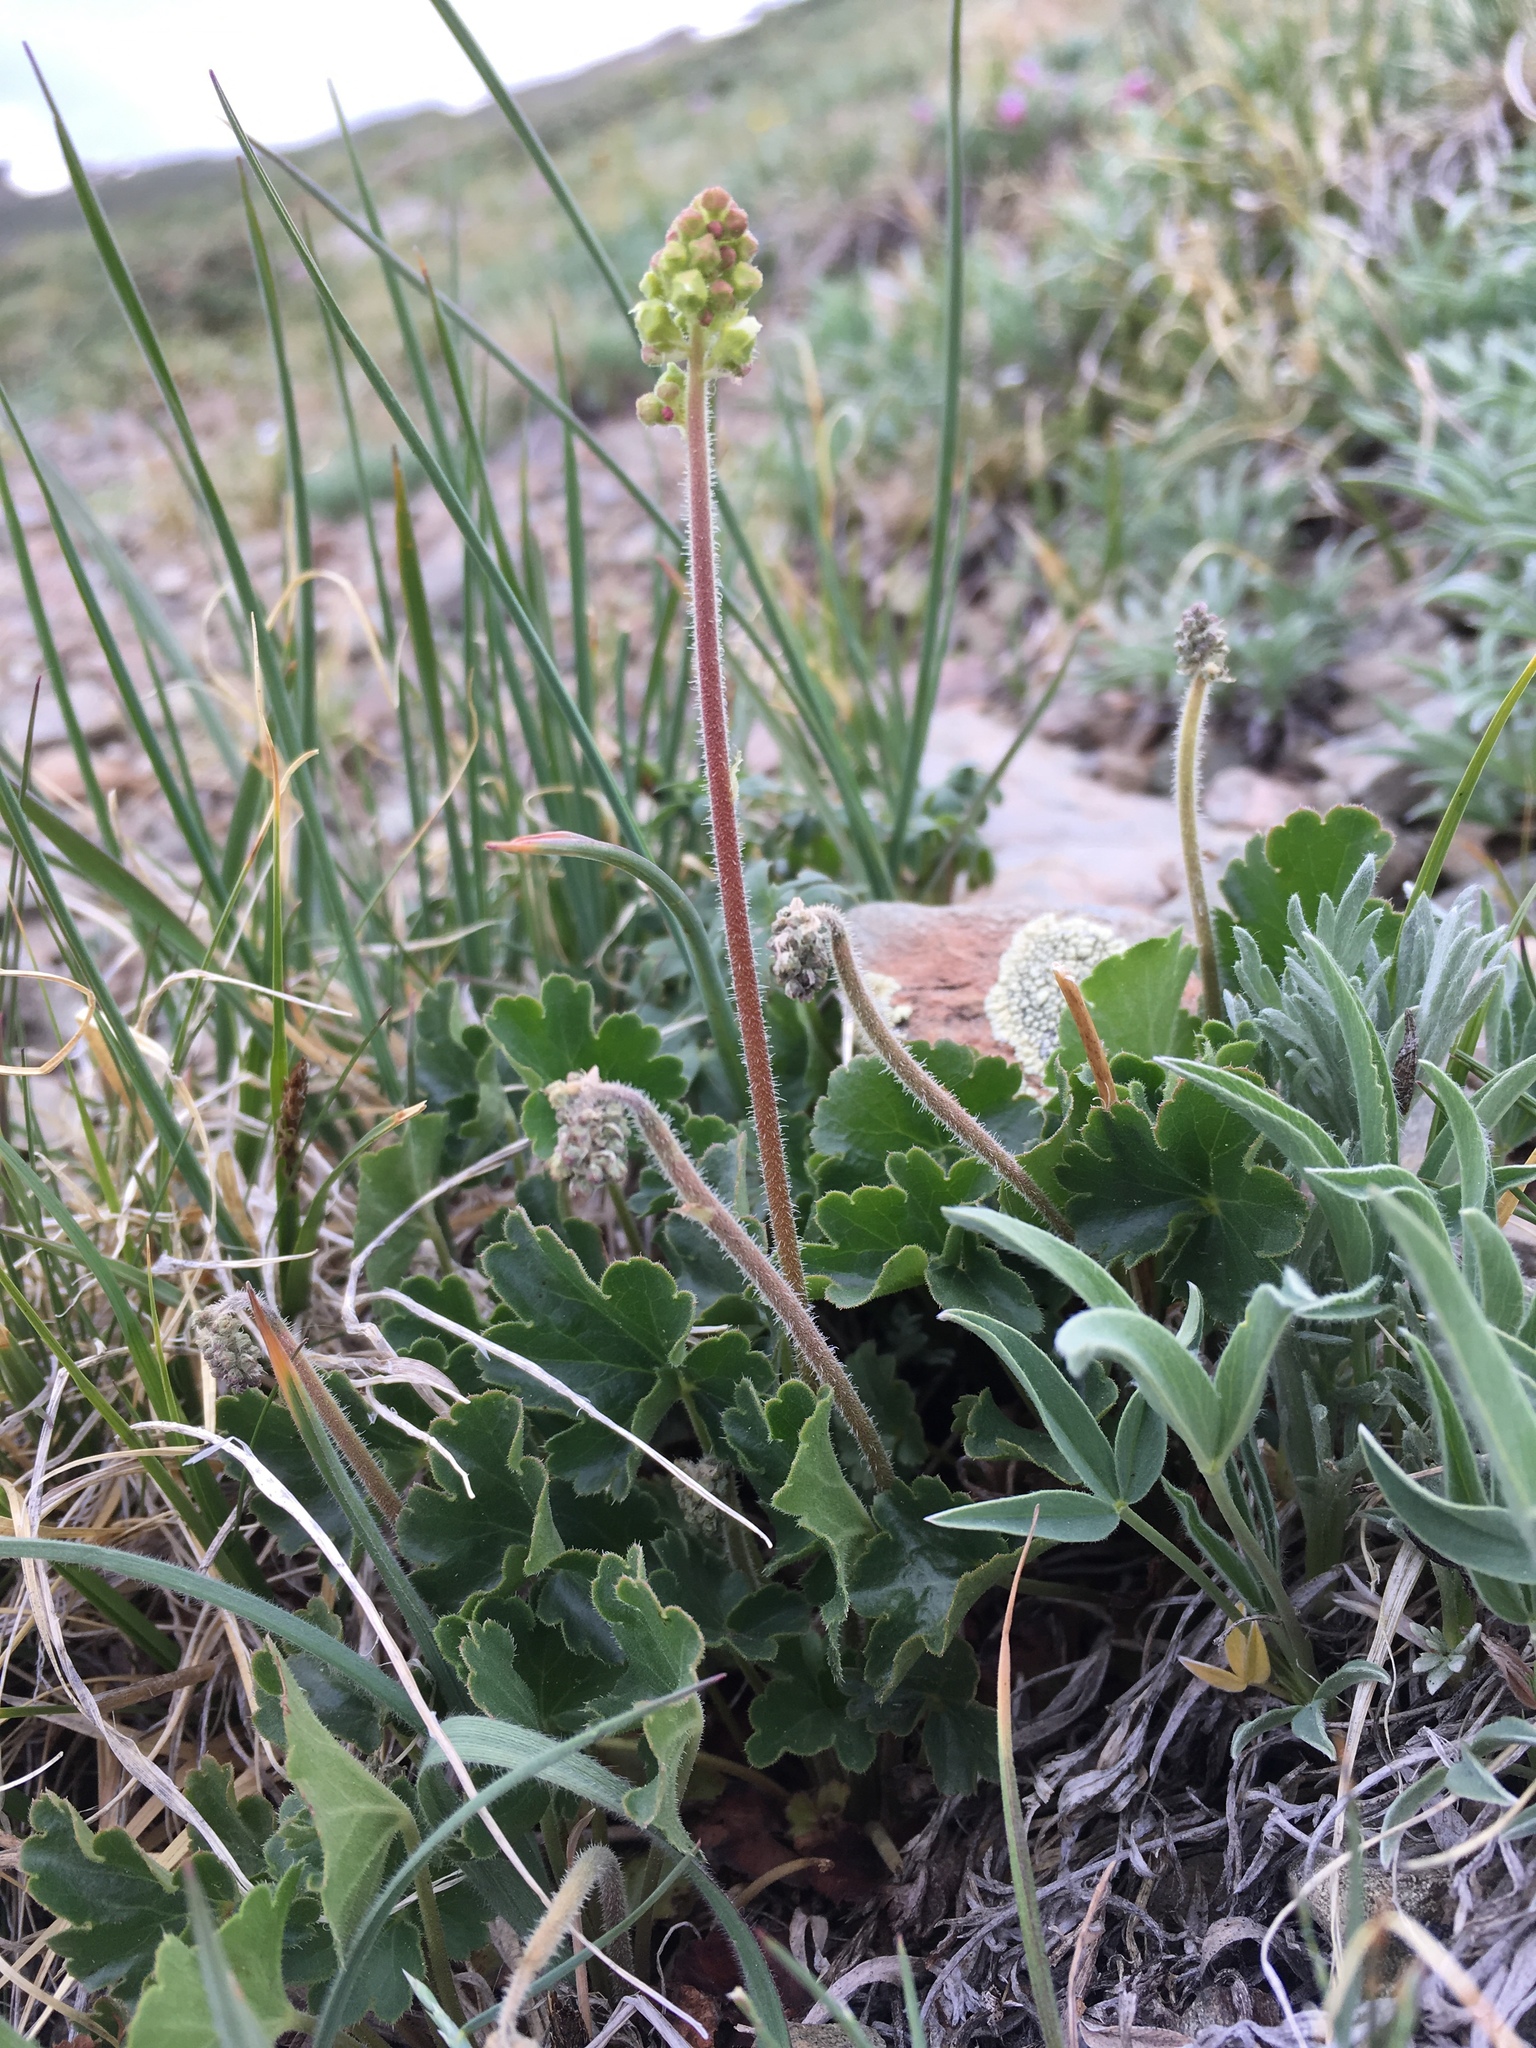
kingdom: Plantae
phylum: Tracheophyta
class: Magnoliopsida
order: Saxifragales
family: Saxifragaceae
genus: Heuchera
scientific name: Heuchera parvifolia
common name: Common alumroot
